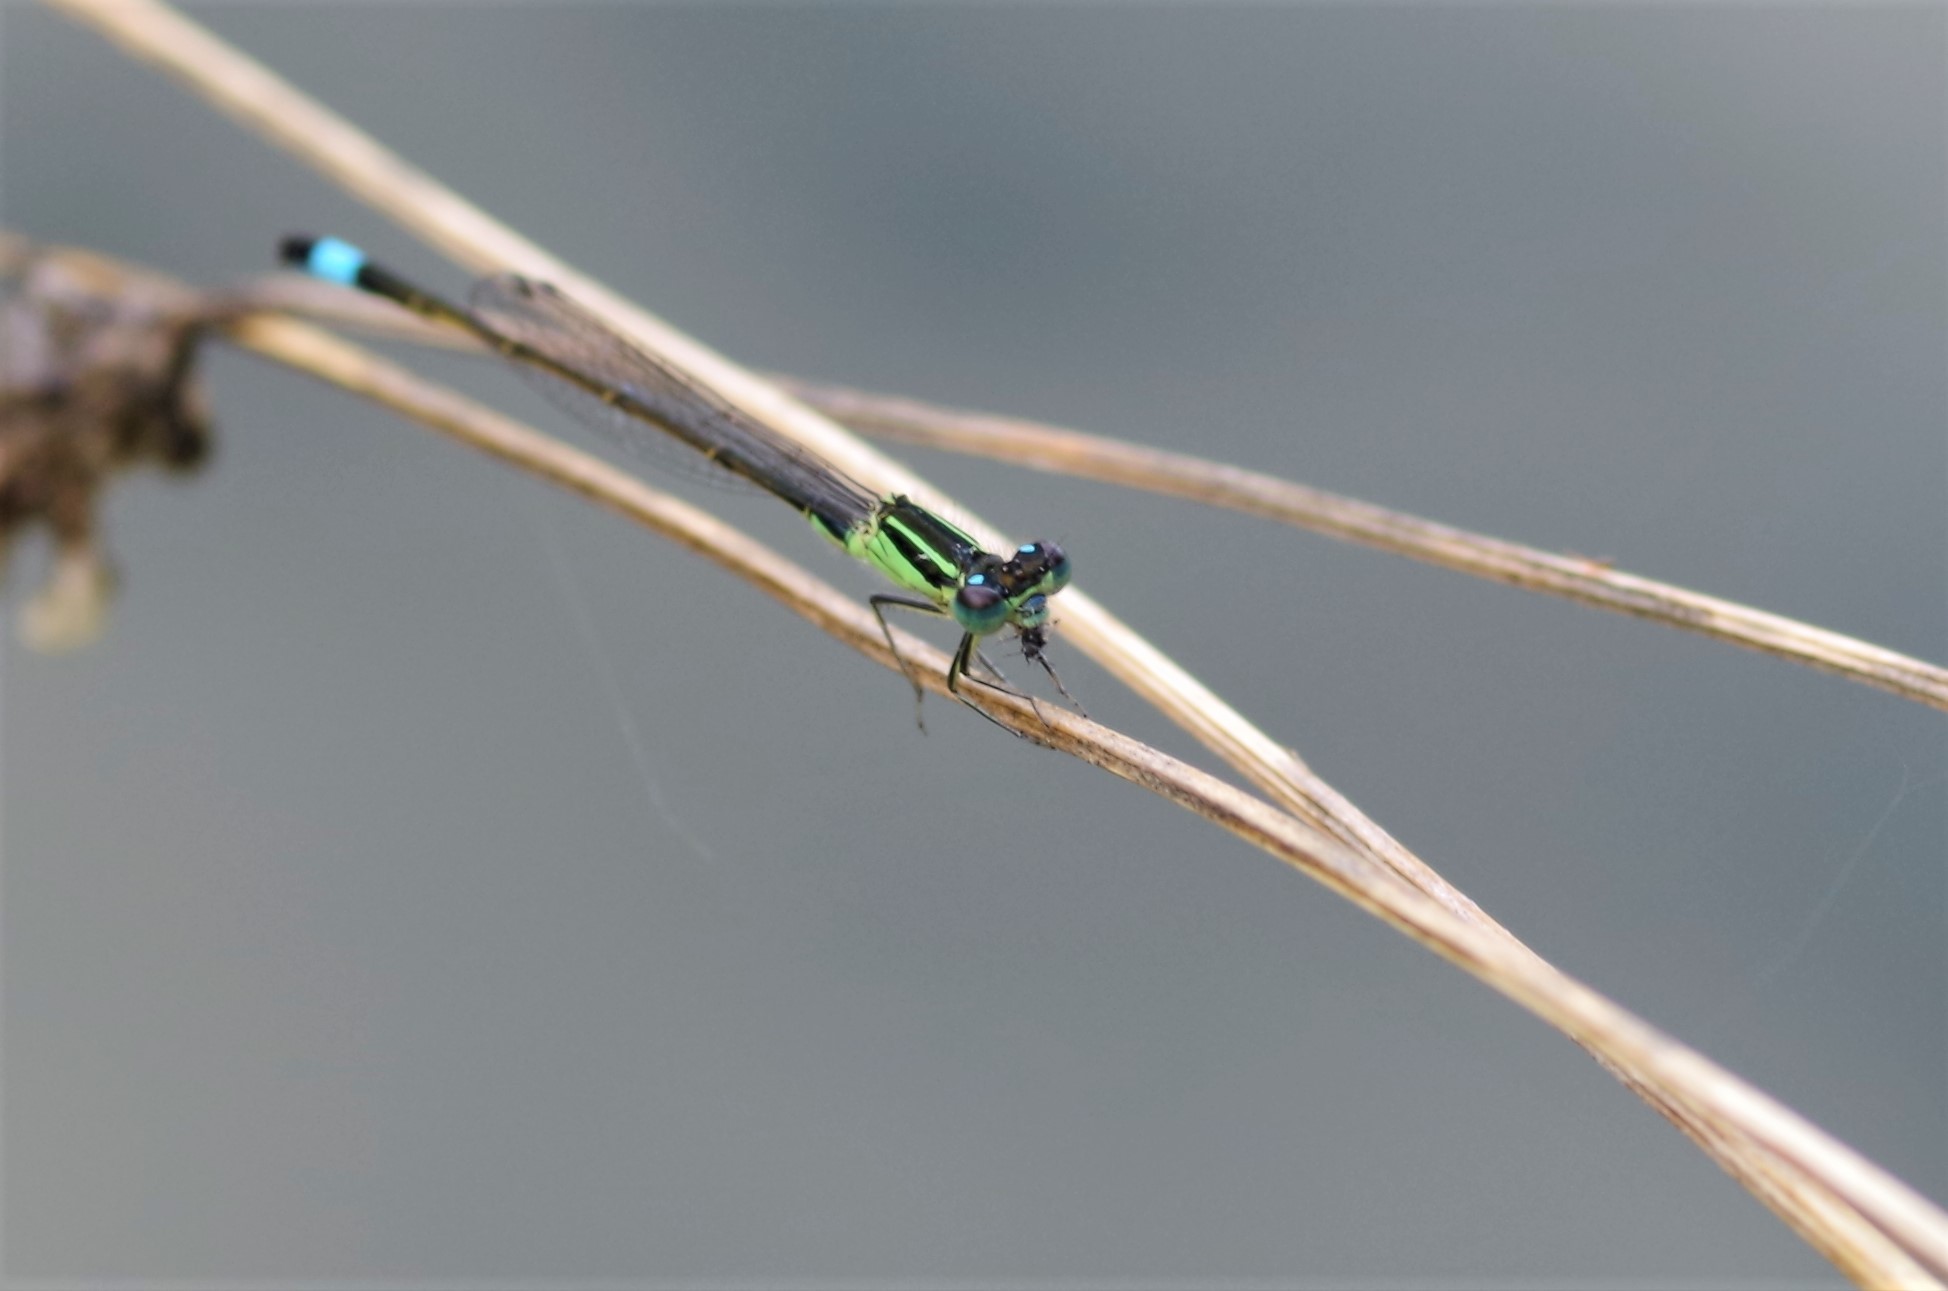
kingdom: Animalia
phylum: Arthropoda
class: Insecta
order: Odonata
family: Coenagrionidae
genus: Ischnura
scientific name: Ischnura elegans
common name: Blue-tailed damselfly
